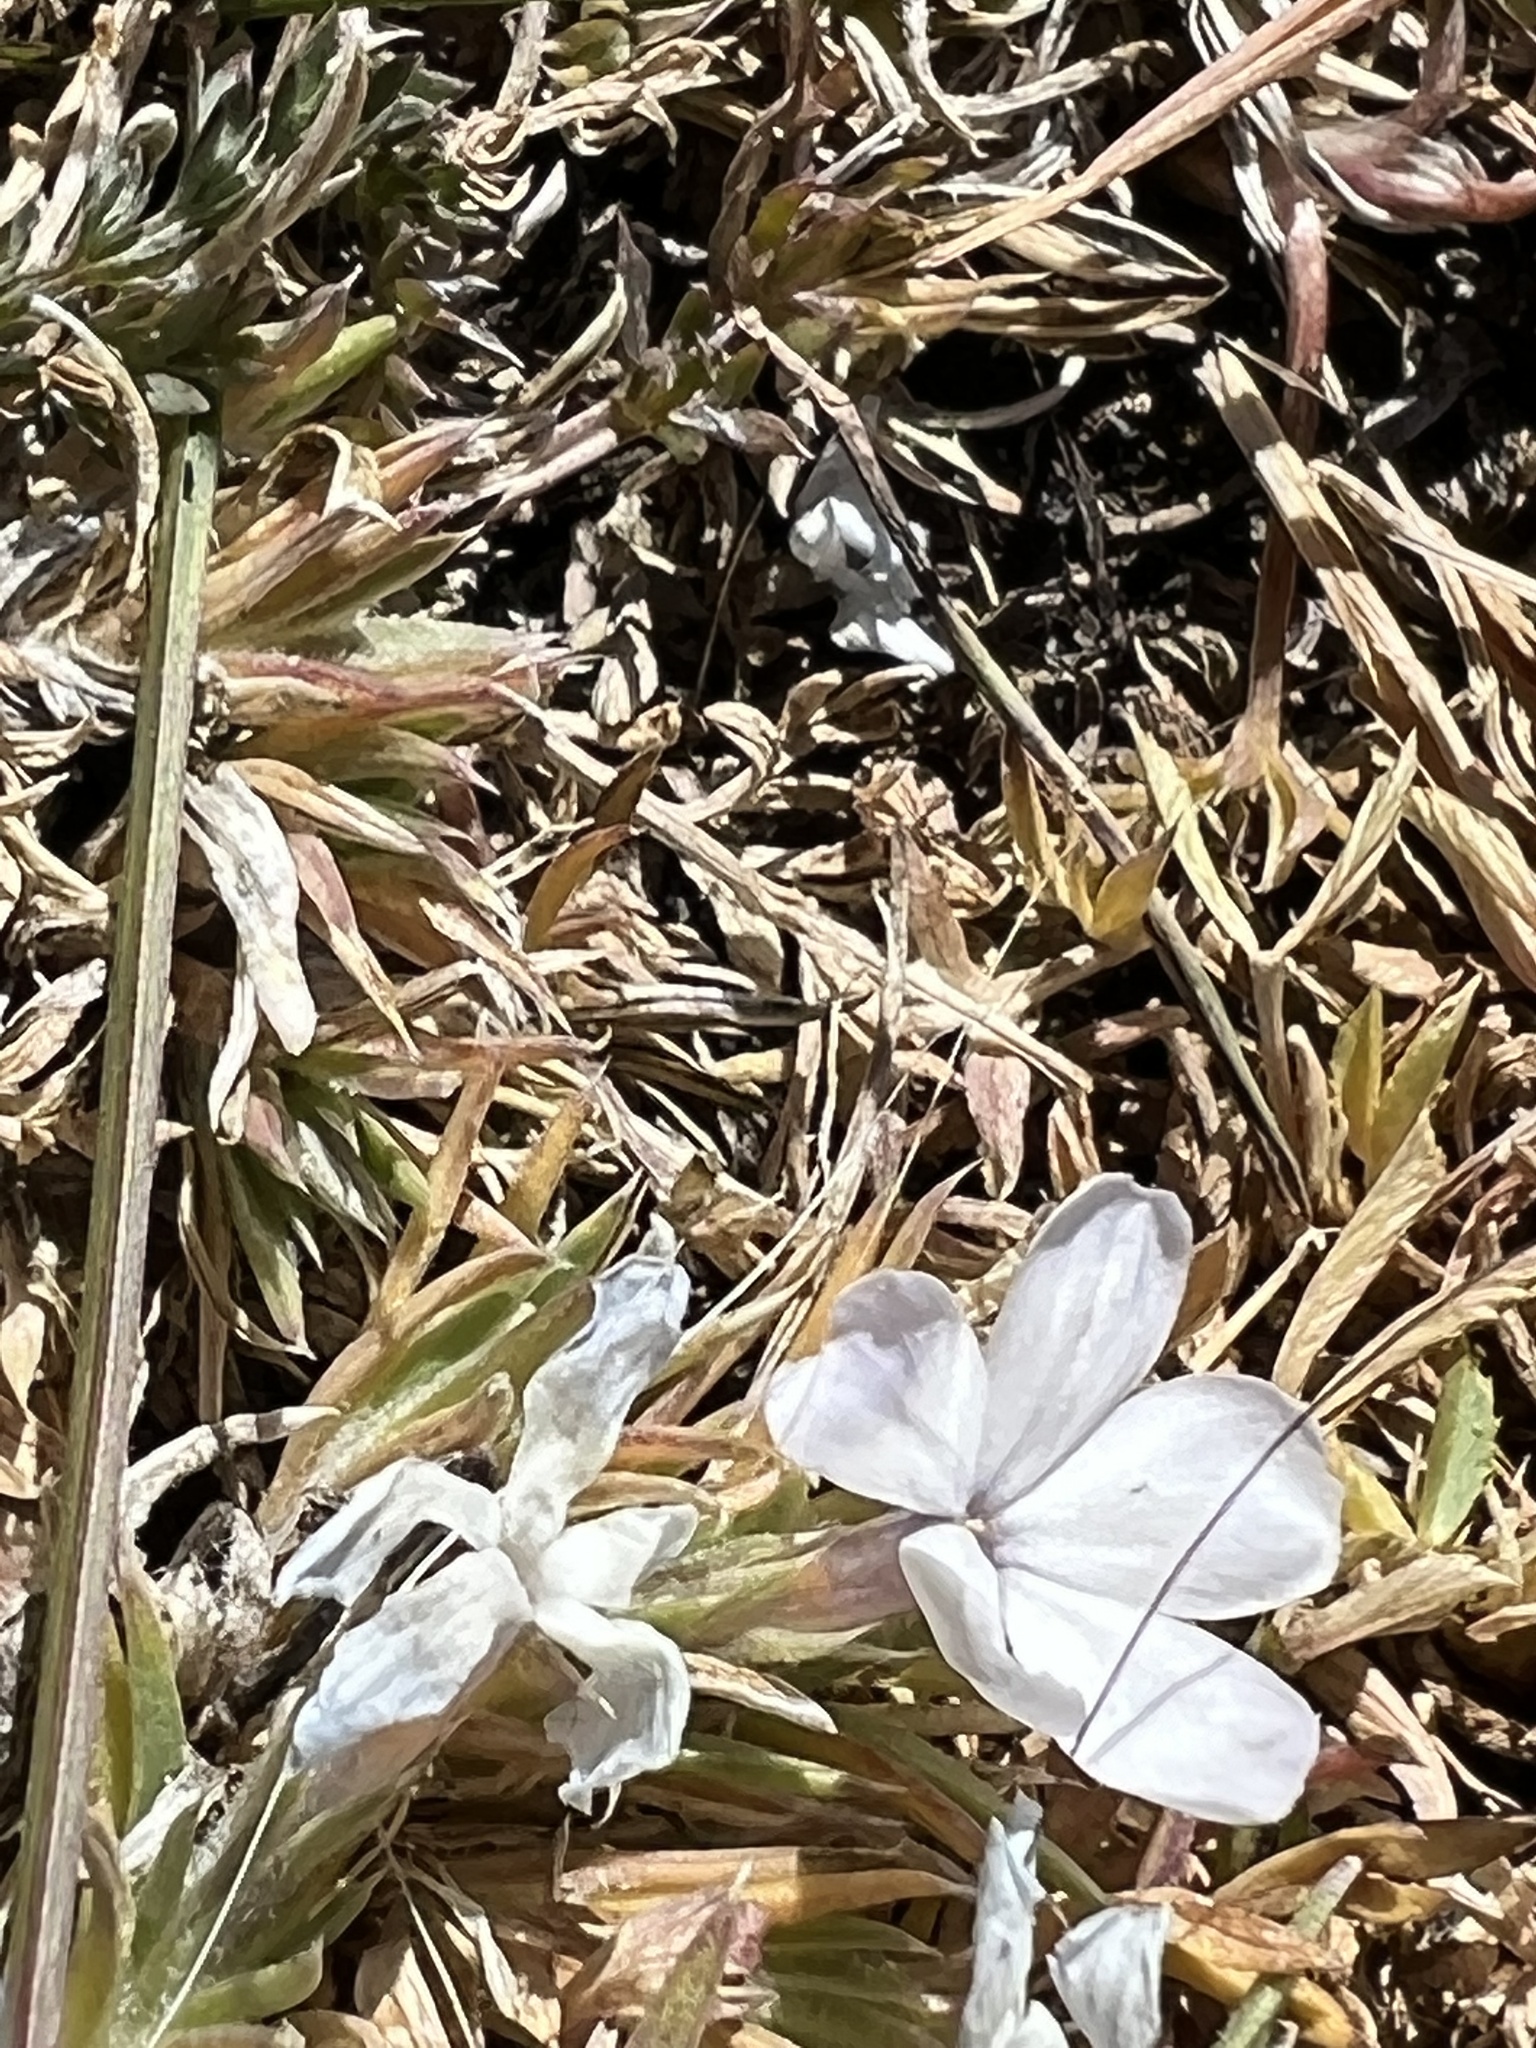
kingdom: Plantae
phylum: Tracheophyta
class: Magnoliopsida
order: Ericales
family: Polemoniaceae
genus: Phlox
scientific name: Phlox condensata
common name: Compact phlox
